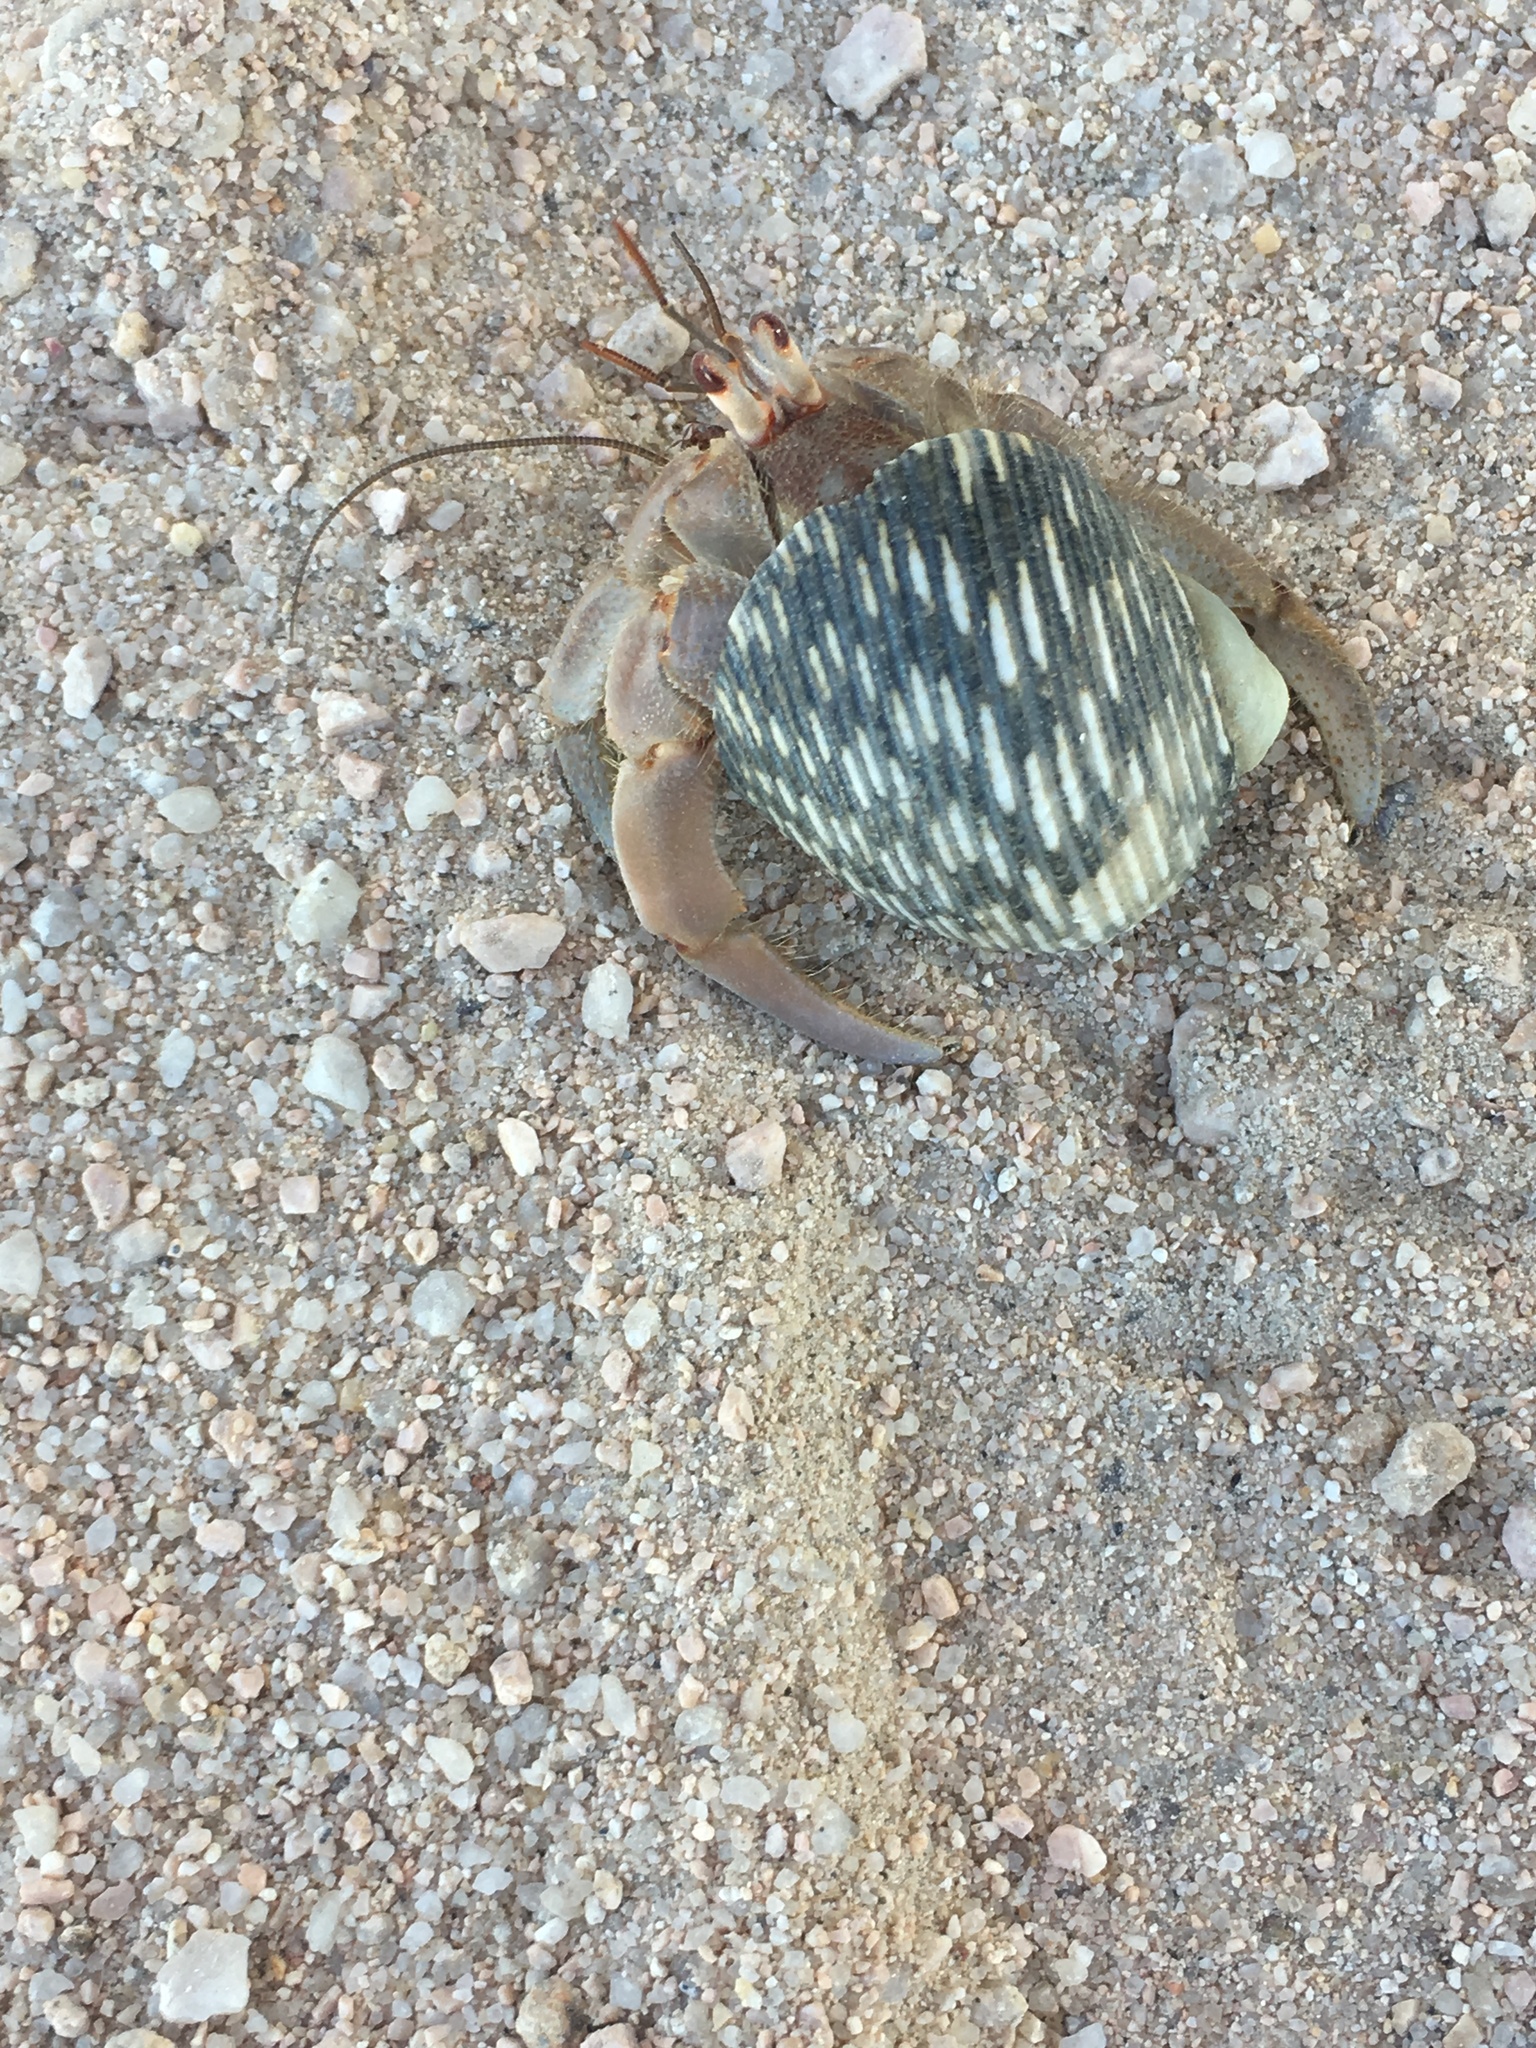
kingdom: Animalia
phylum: Arthropoda
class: Malacostraca
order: Decapoda
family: Coenobitidae
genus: Coenobita
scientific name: Coenobita compressus
